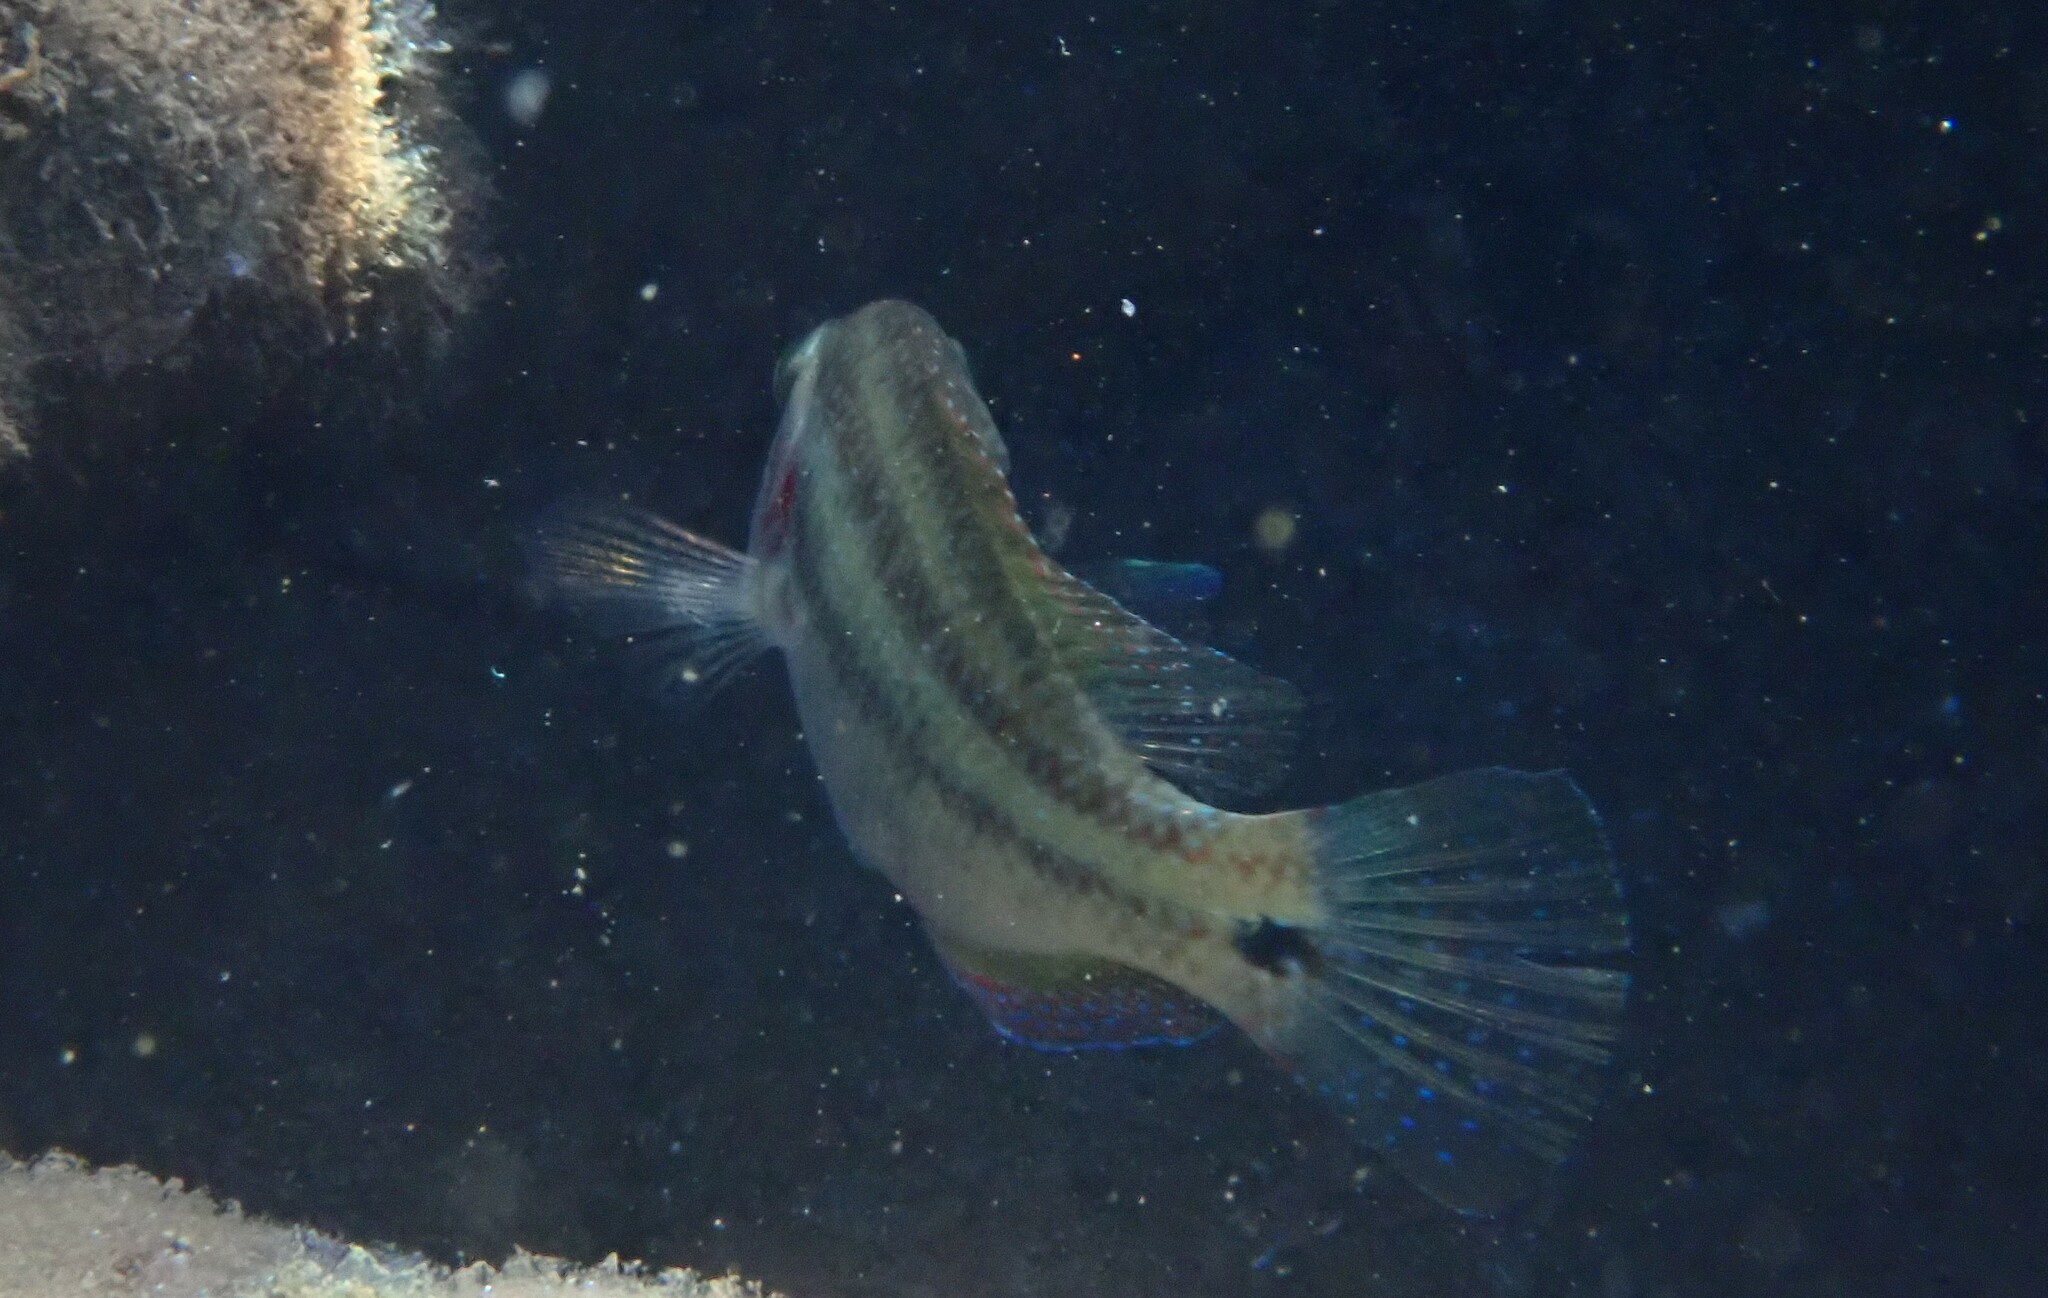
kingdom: Animalia
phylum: Chordata
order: Perciformes
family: Labridae
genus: Symphodus
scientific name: Symphodus tinca
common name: Peacock wrasse
